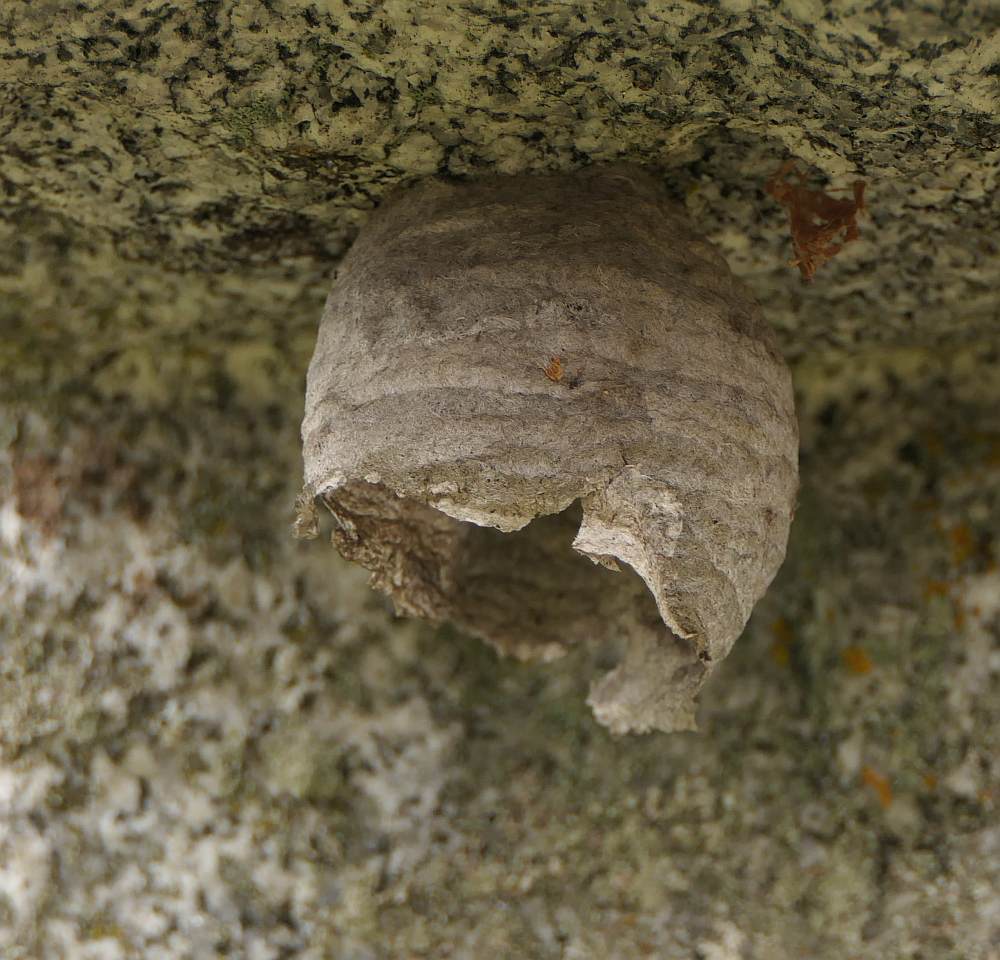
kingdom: Animalia
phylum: Arthropoda
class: Insecta
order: Hymenoptera
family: Vespidae
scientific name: Vespidae
